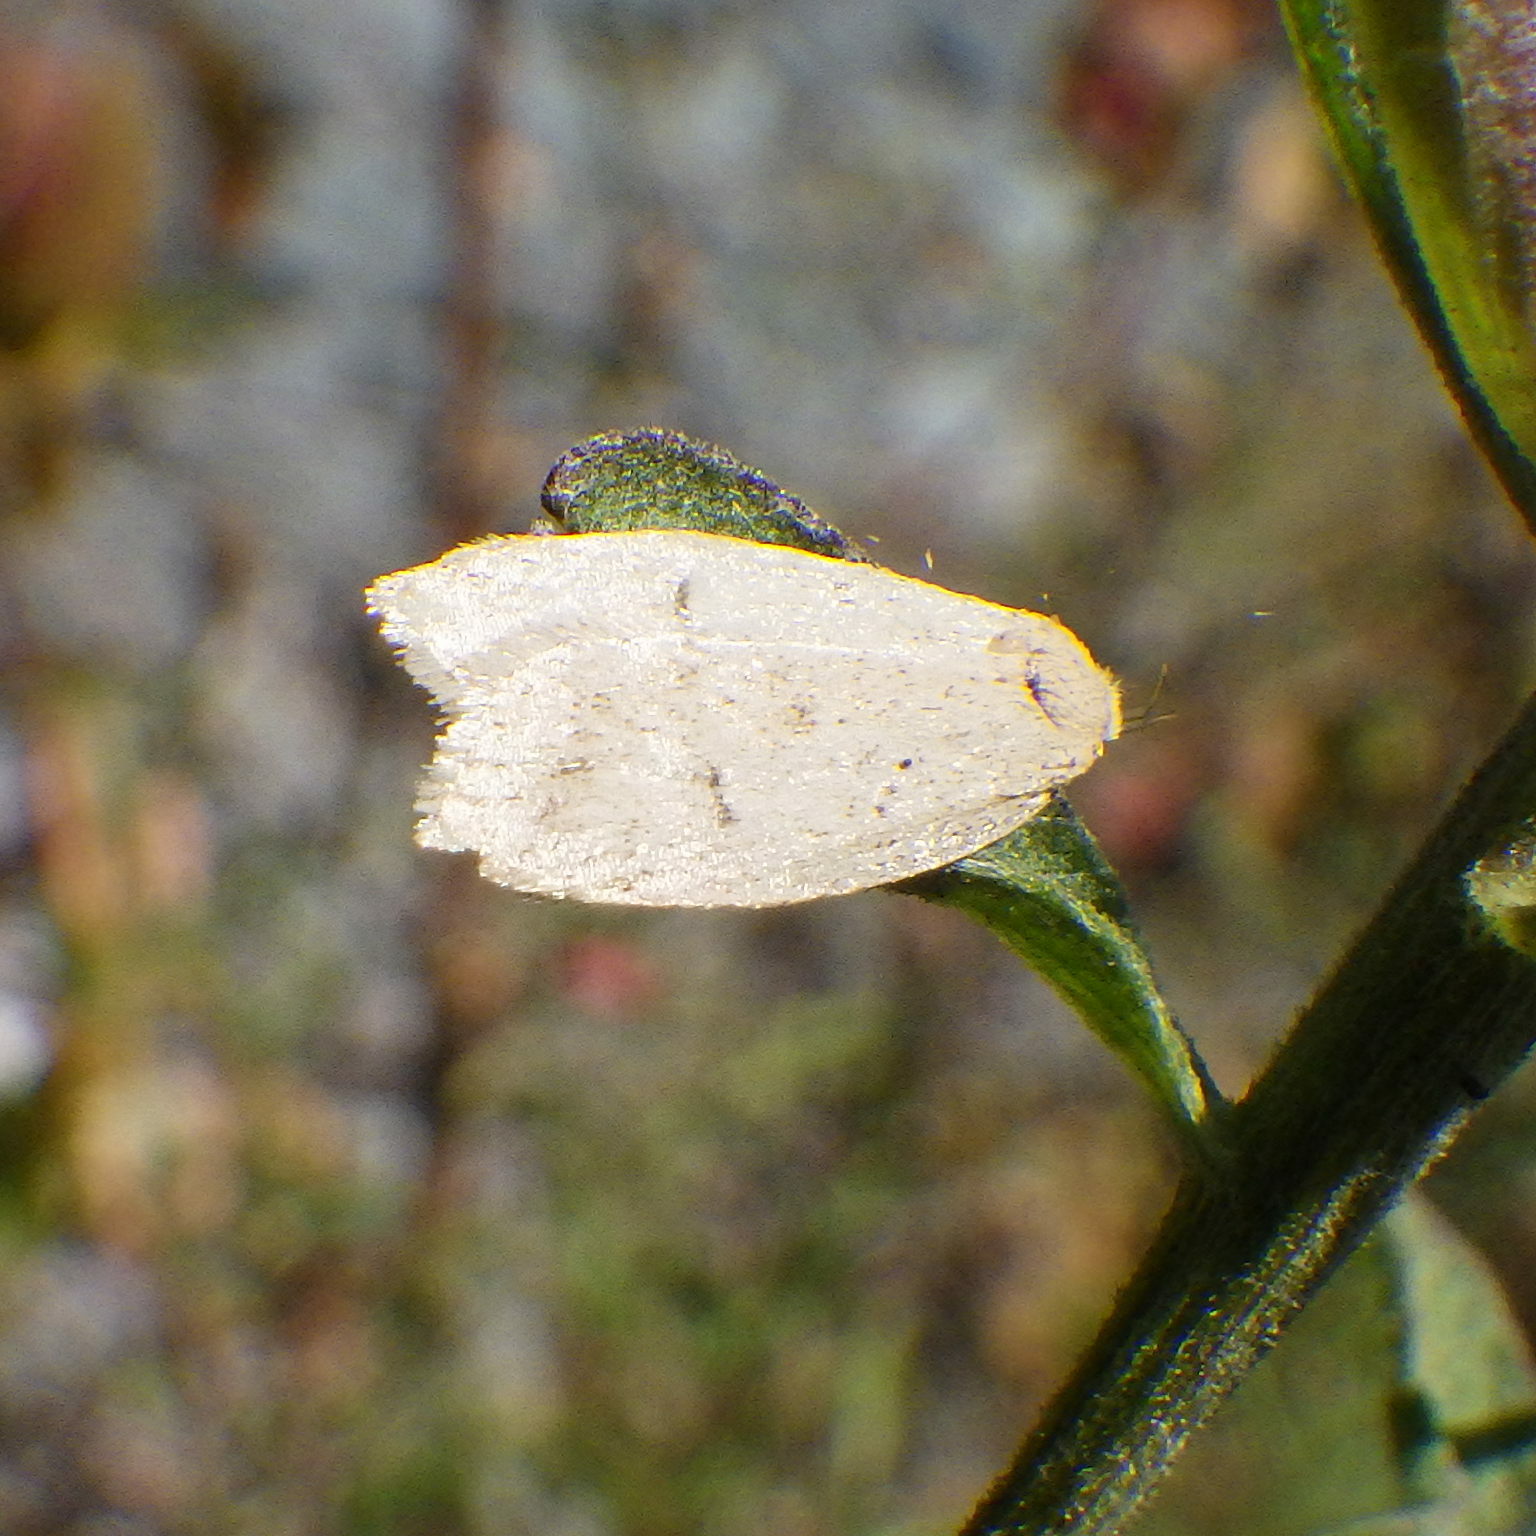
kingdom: Animalia
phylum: Arthropoda
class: Insecta
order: Lepidoptera
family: Peleopodidae
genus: Machimia
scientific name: Machimia tentoriferella
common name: Gold-striped leaftier moth
